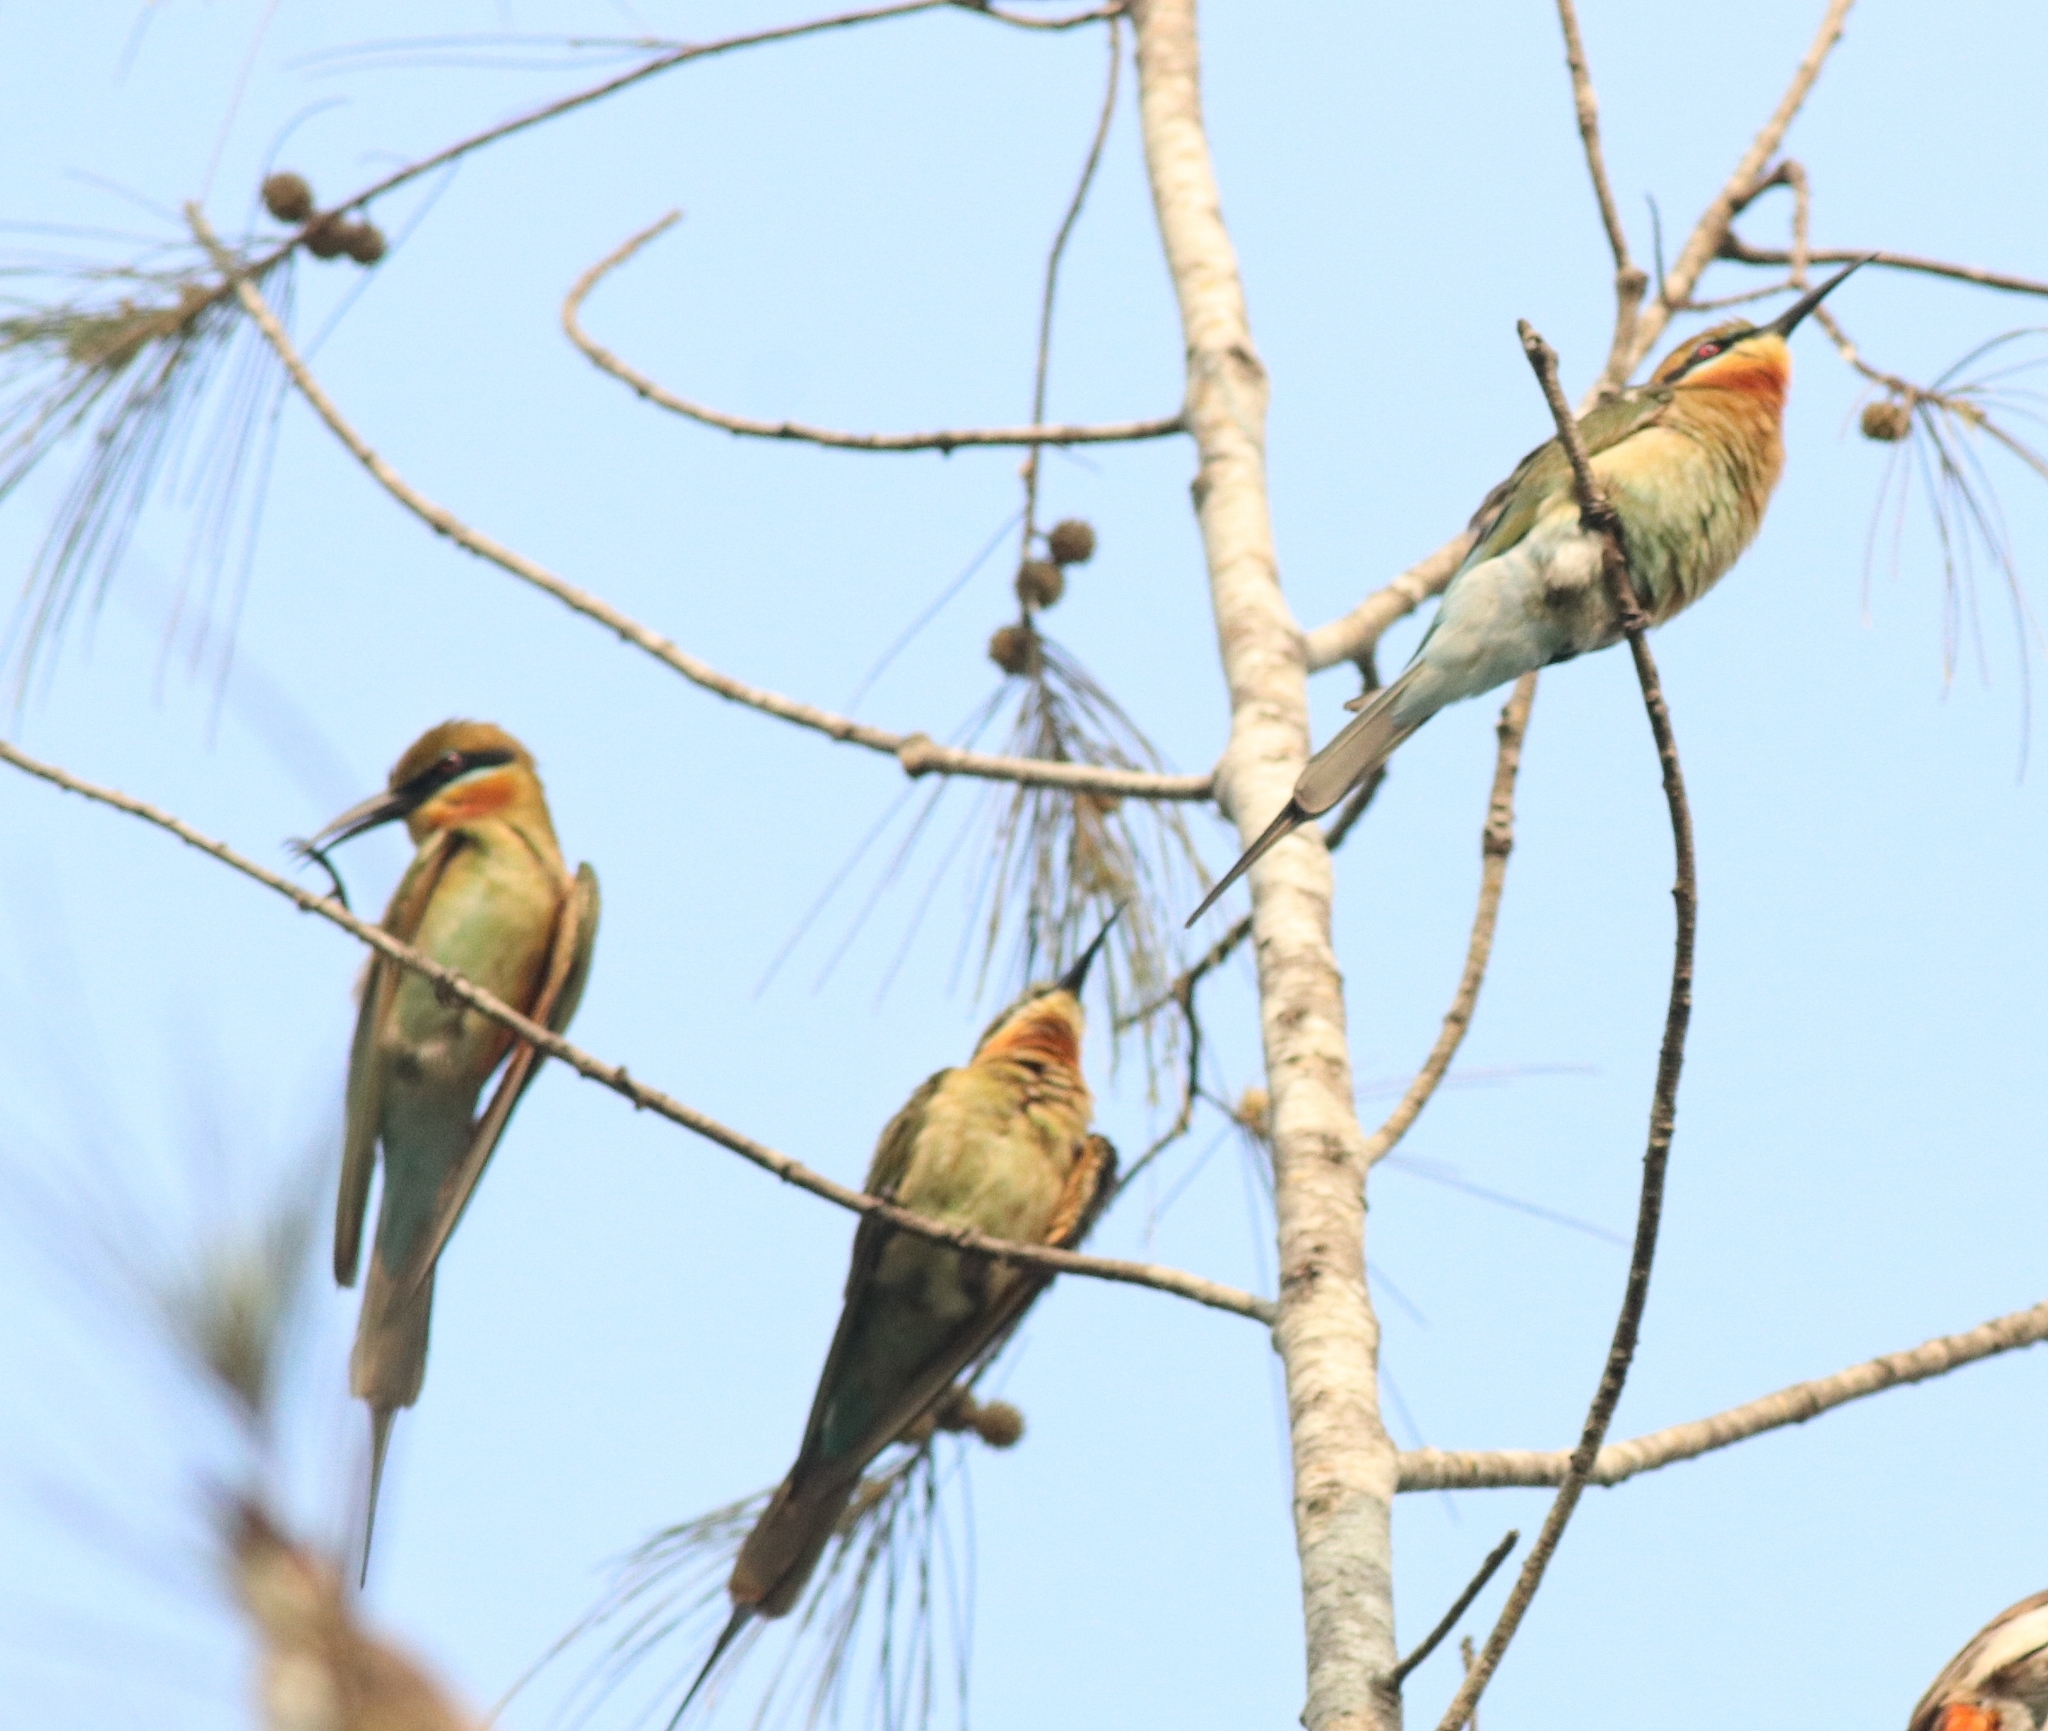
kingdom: Animalia
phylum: Chordata
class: Aves
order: Coraciiformes
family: Meropidae
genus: Merops
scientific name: Merops philippinus
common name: Blue-tailed bee-eater
